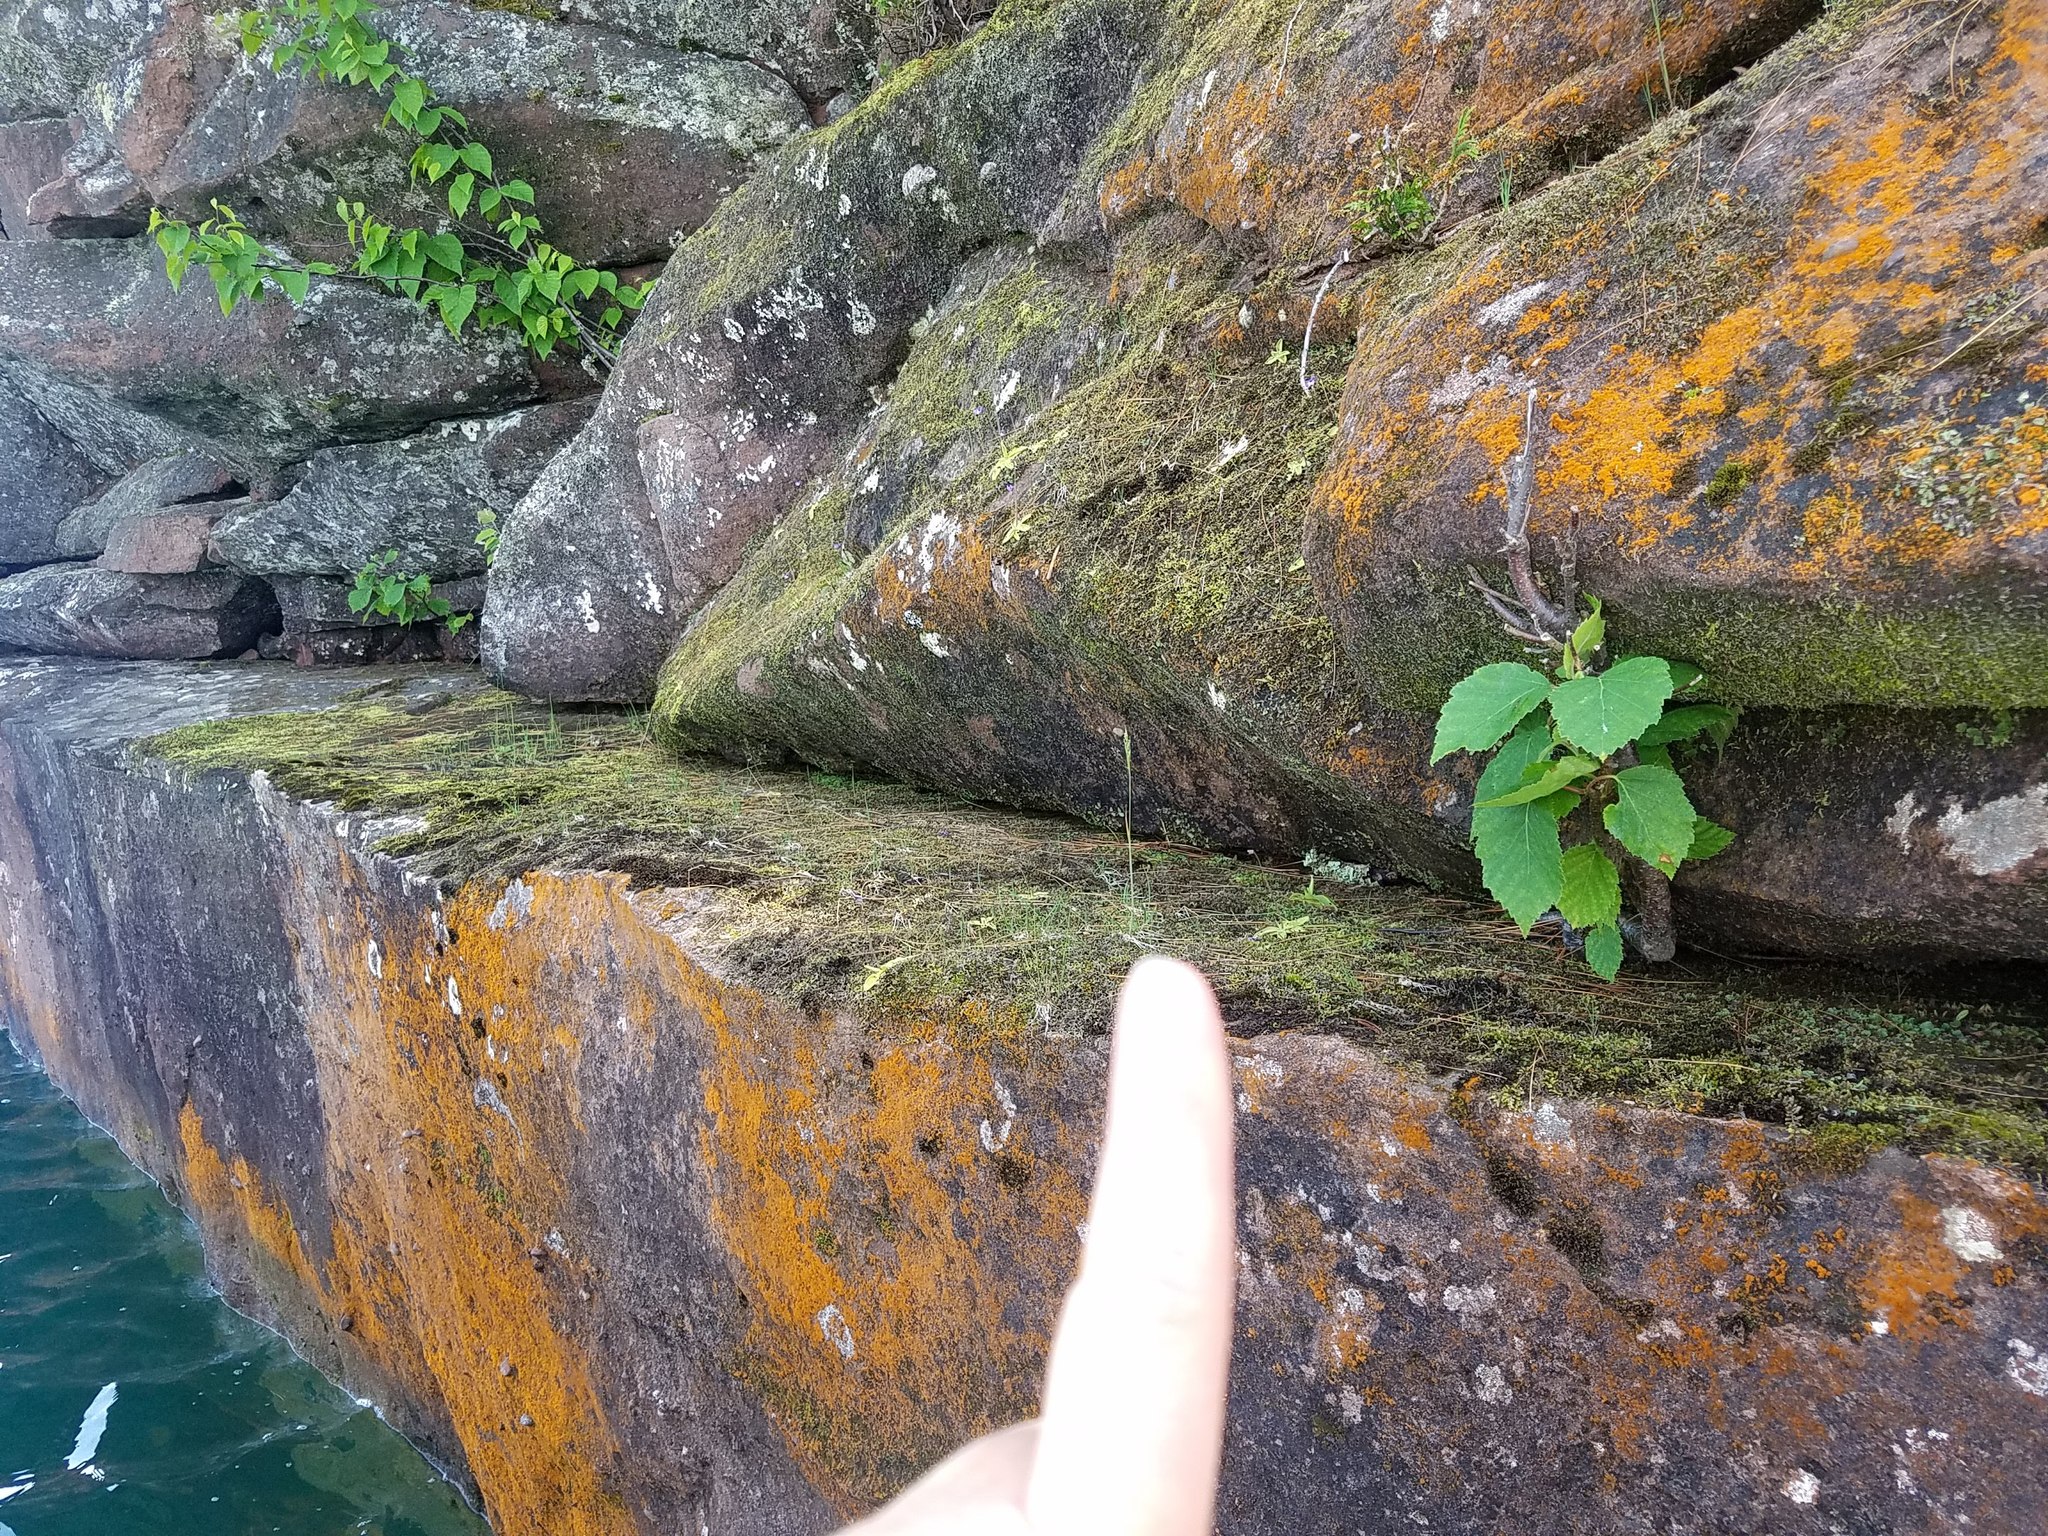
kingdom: Plantae
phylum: Tracheophyta
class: Liliopsida
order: Poales
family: Poaceae
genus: Koeleria
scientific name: Koeleria spicata
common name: Mountain trisetum
